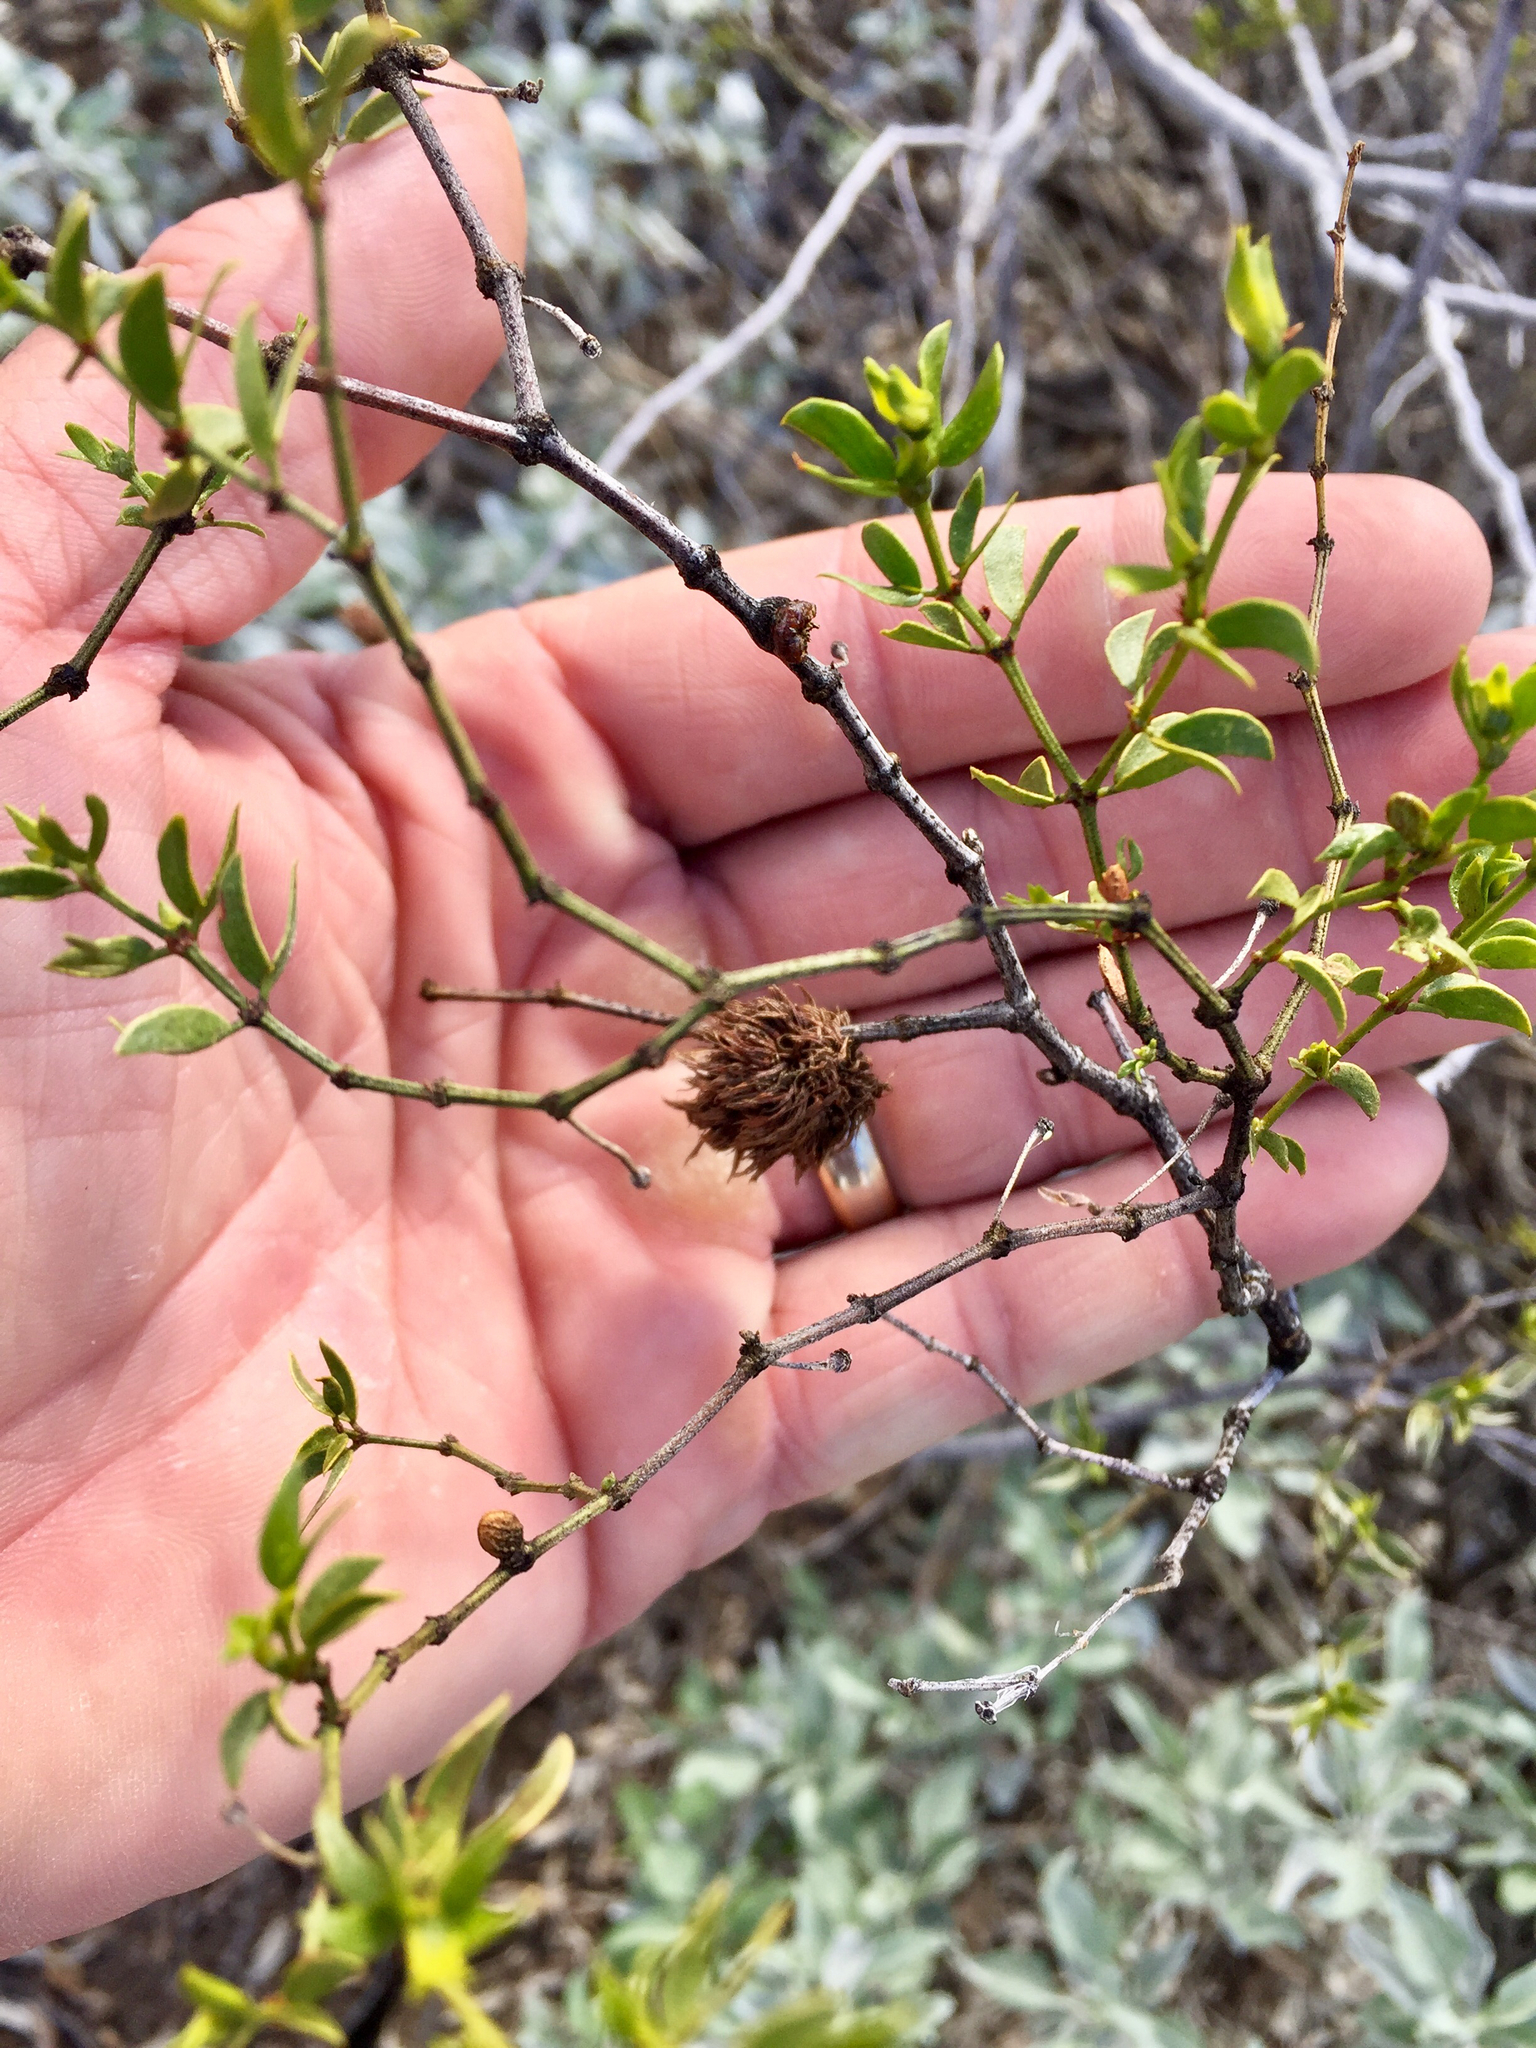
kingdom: Animalia
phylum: Arthropoda
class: Insecta
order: Diptera
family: Cecidomyiidae
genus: Asphondylia
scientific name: Asphondylia auripila
